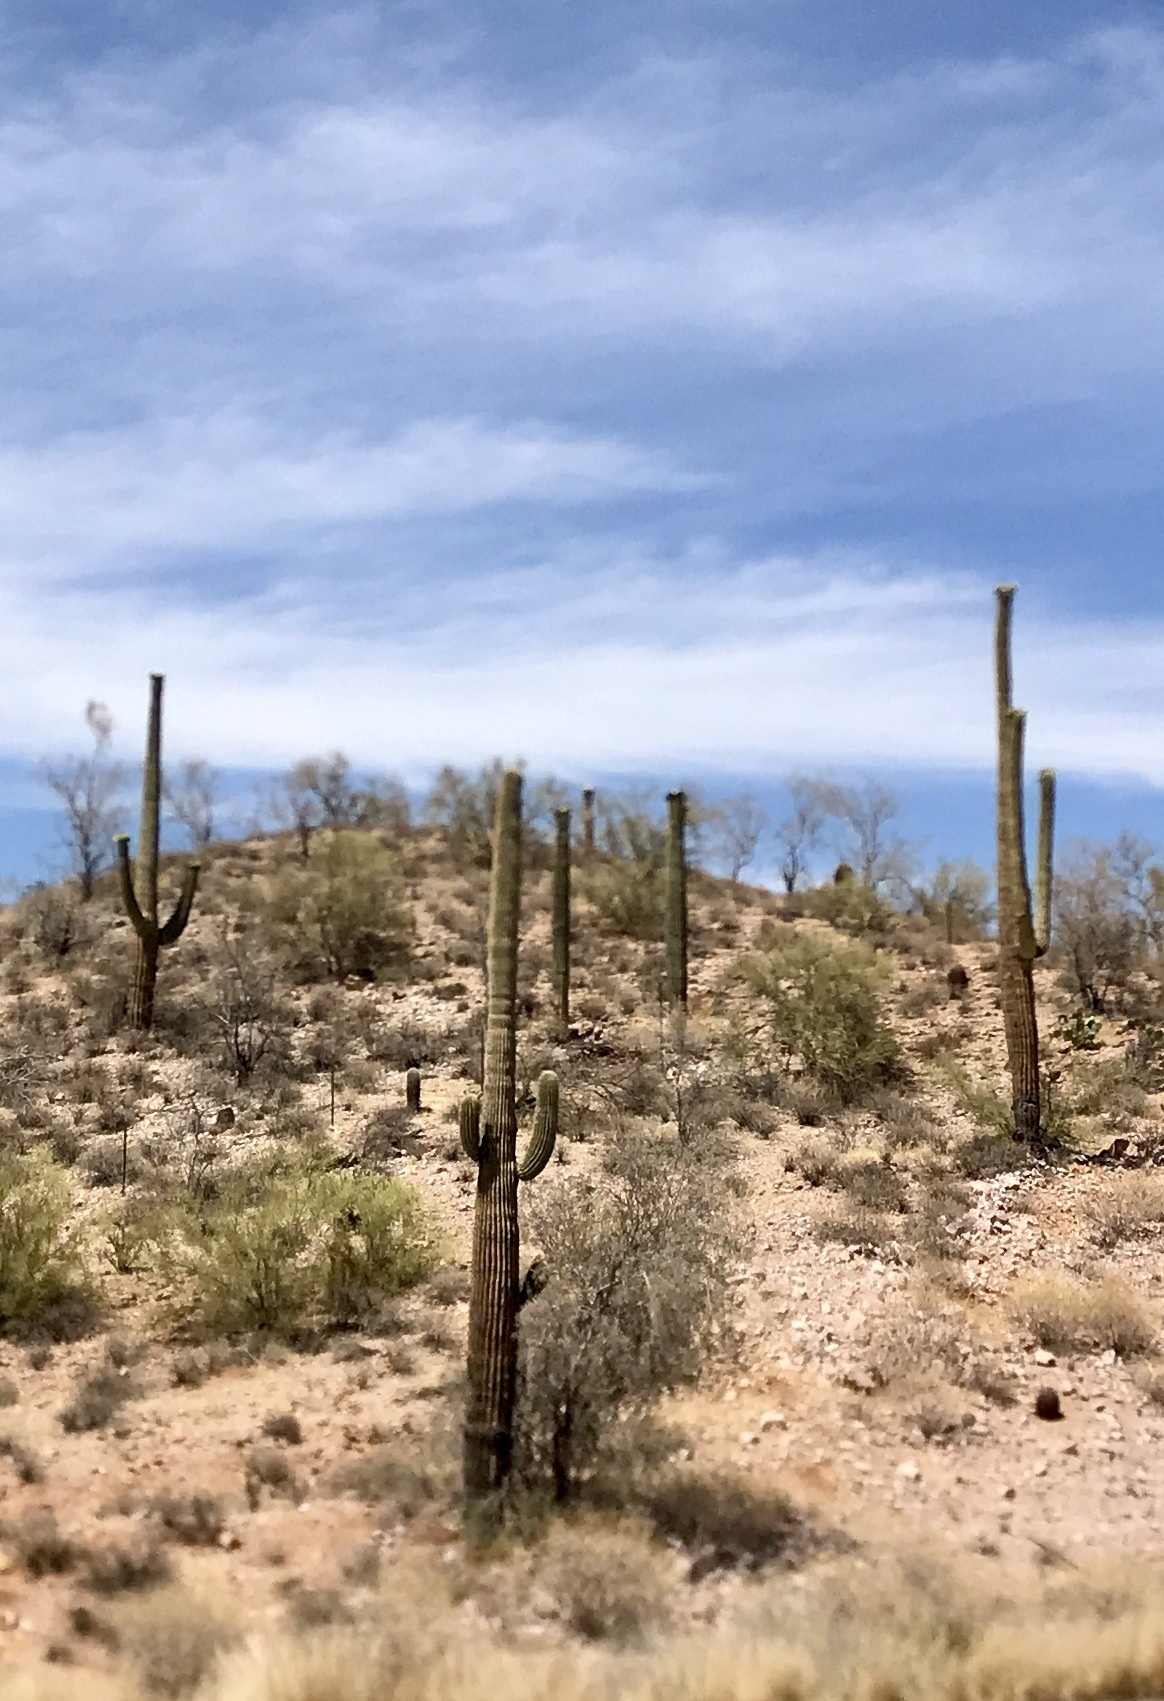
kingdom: Plantae
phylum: Tracheophyta
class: Magnoliopsida
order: Caryophyllales
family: Cactaceae
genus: Carnegiea
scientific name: Carnegiea gigantea
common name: Saguaro
